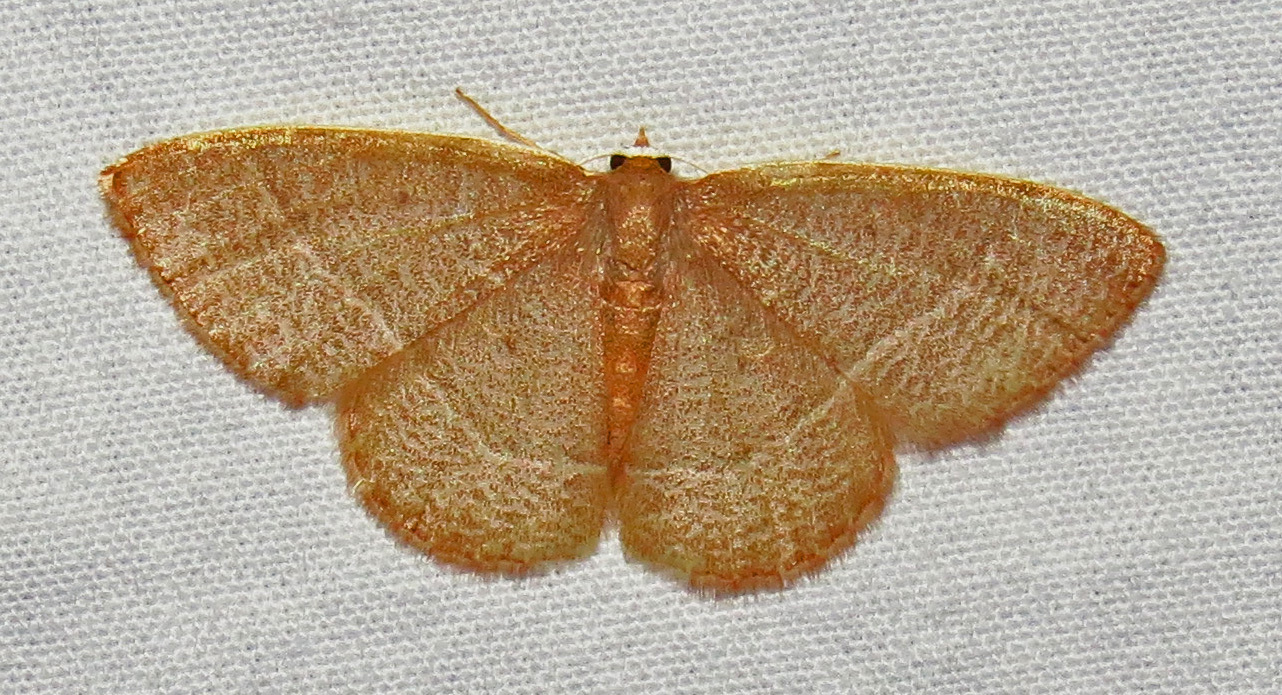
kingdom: Animalia
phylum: Arthropoda
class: Insecta
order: Lepidoptera
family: Geometridae
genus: Nemoria
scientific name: Nemoria bistriaria
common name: Red-fringed emerald
